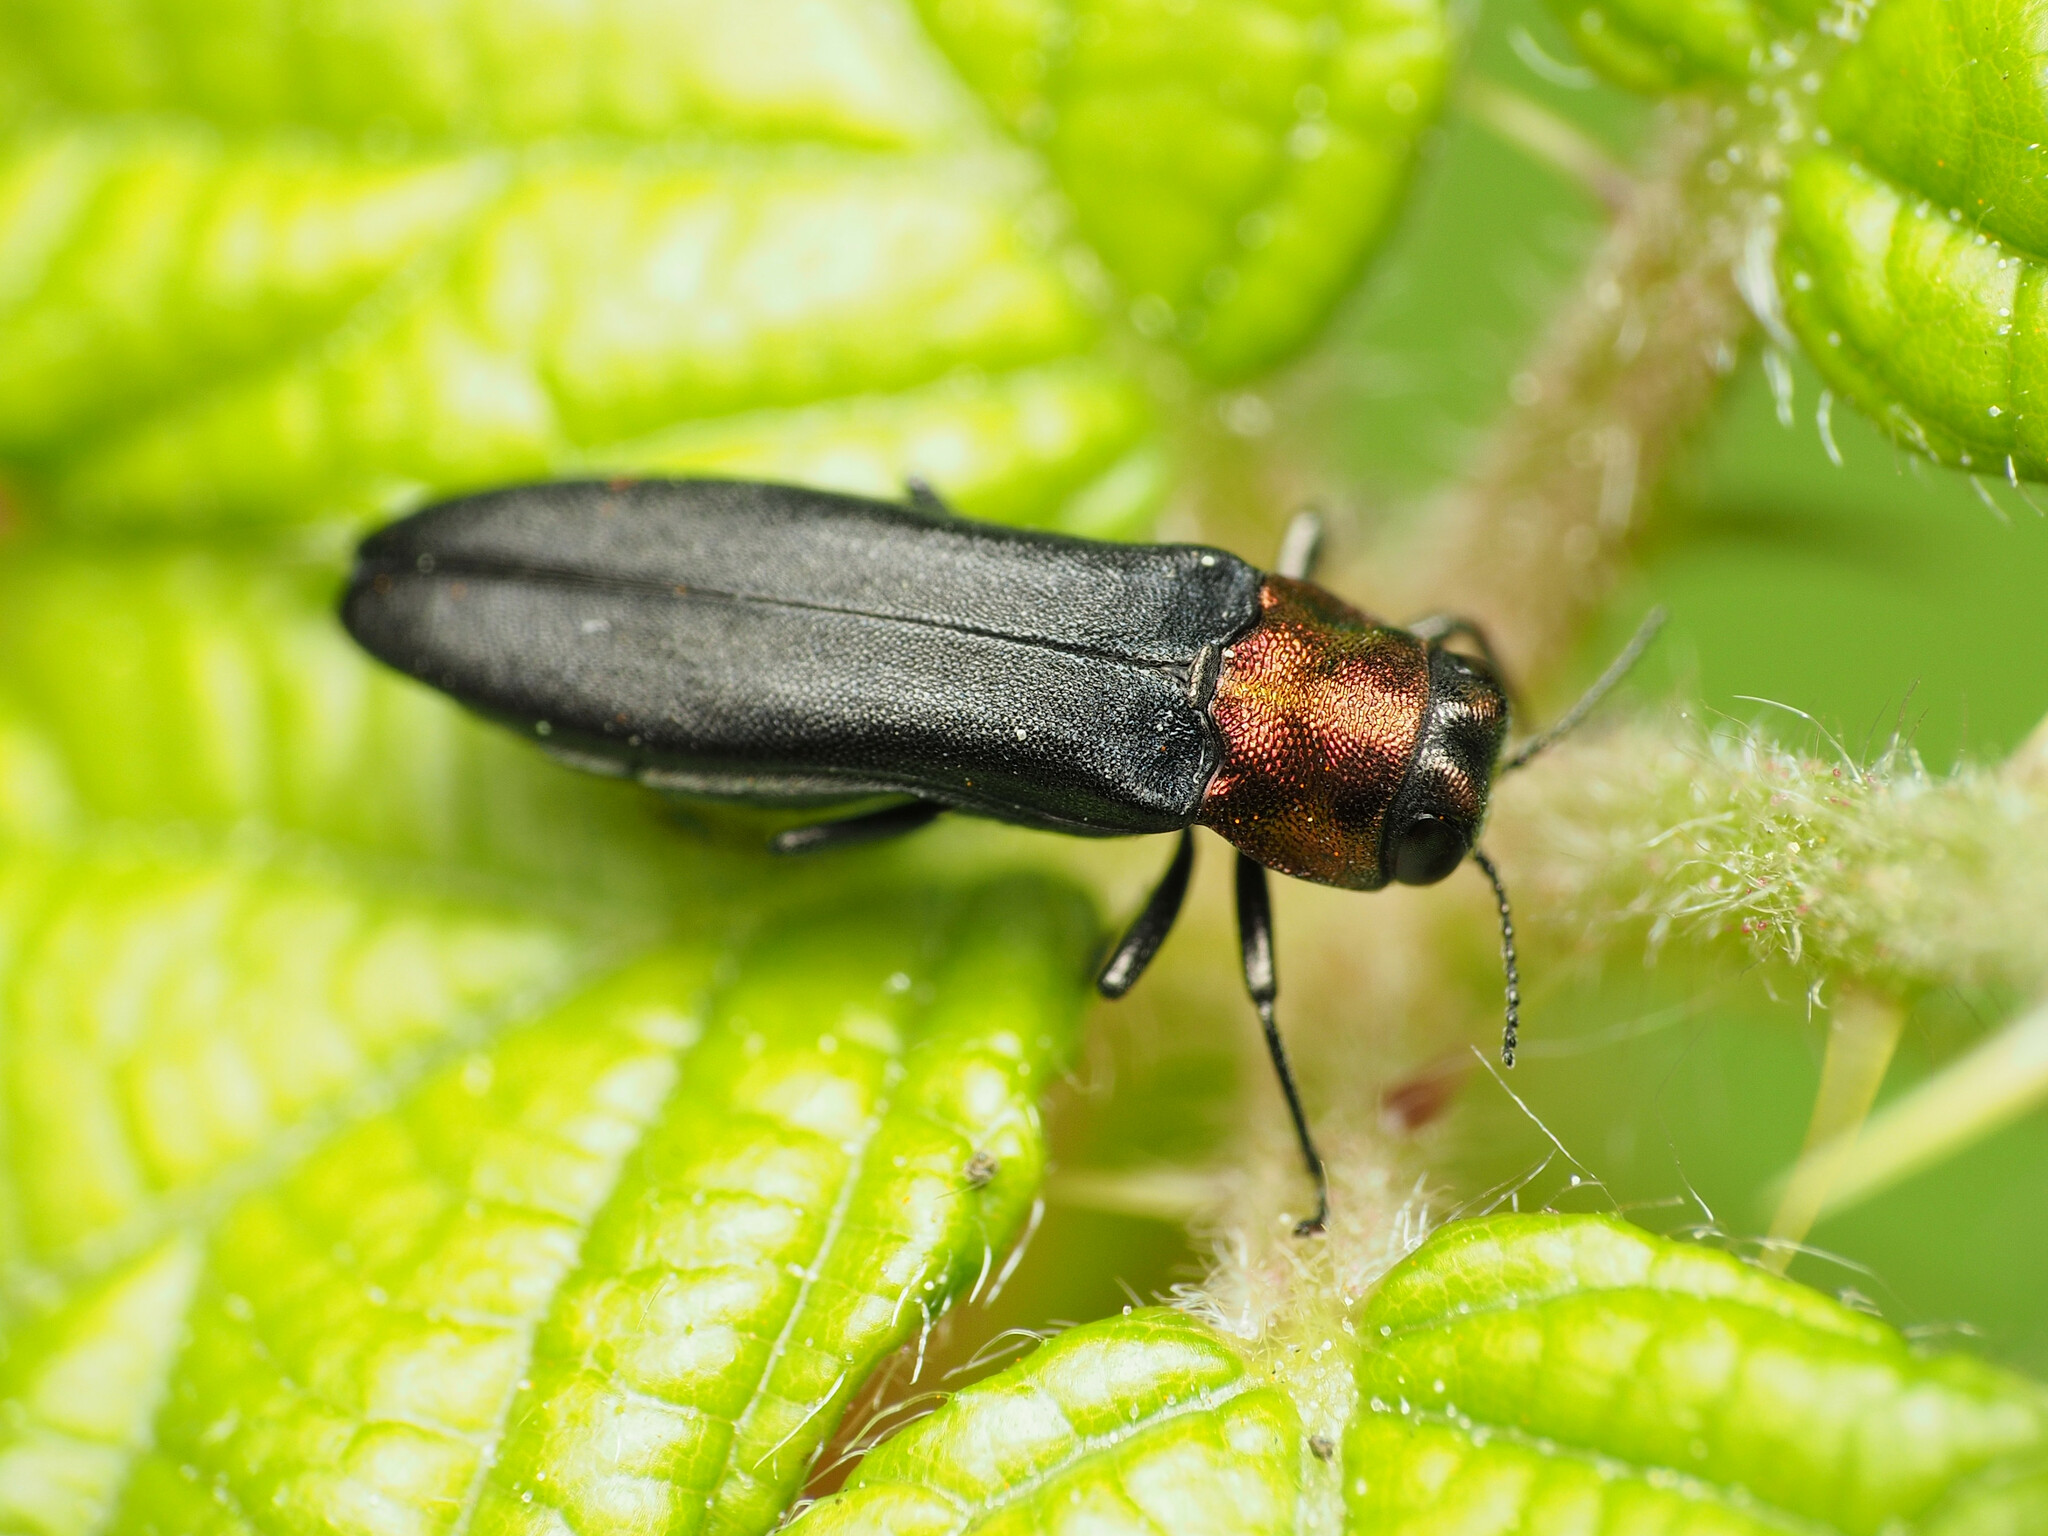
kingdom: Animalia
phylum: Arthropoda
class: Insecta
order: Coleoptera
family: Buprestidae
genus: Agrilus
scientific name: Agrilus ruficollis
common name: Red-necked cane borer beetle
